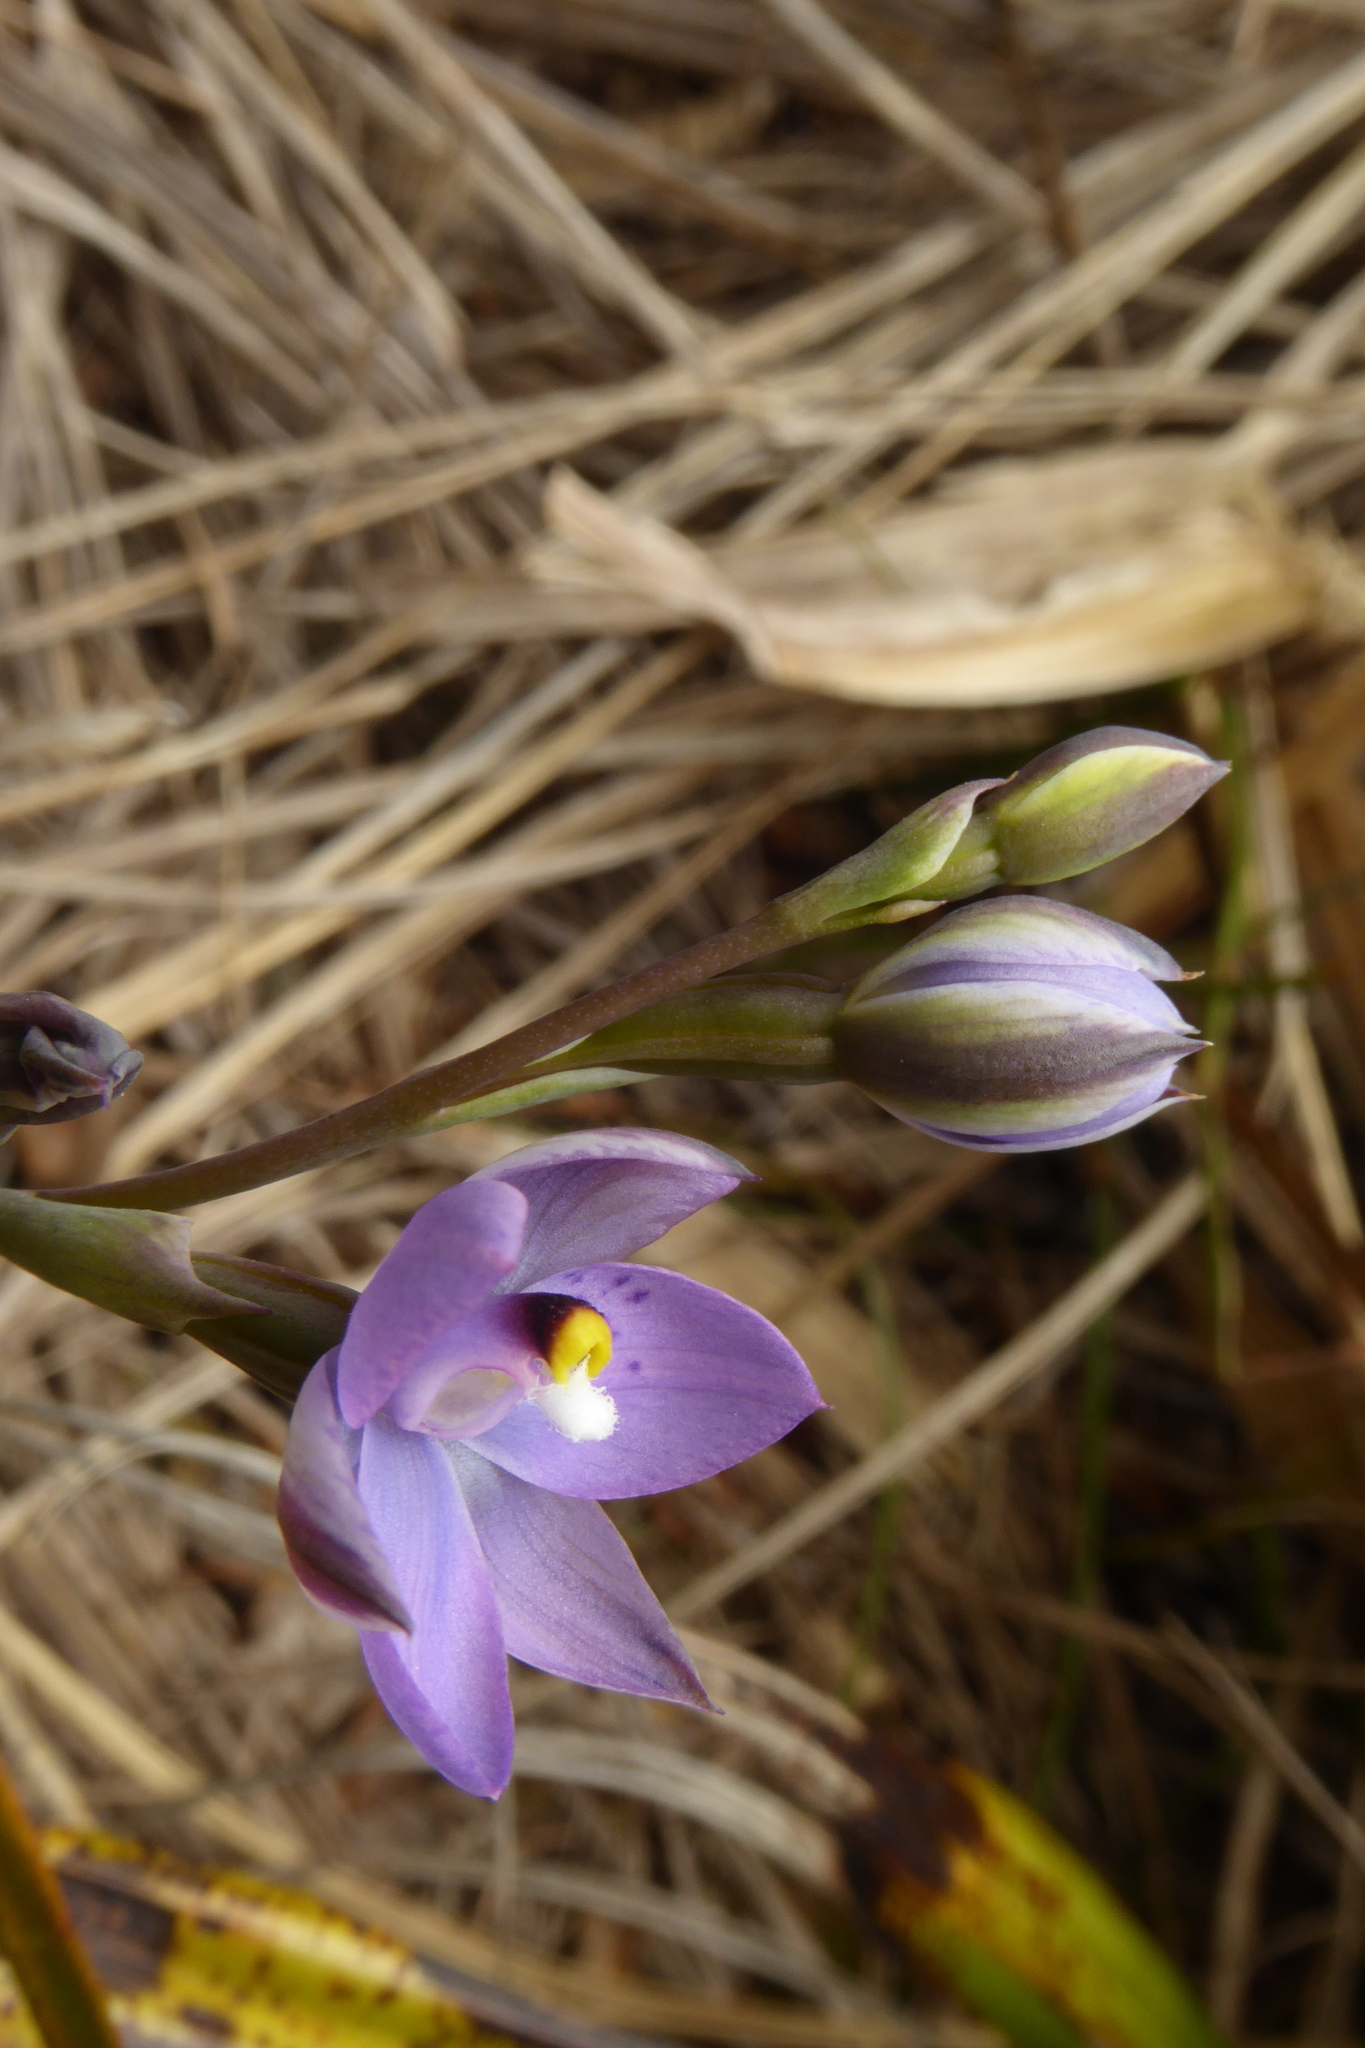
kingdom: Plantae
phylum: Tracheophyta
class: Liliopsida
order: Asparagales
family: Orchidaceae
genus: Thelymitra
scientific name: Thelymitra nervosa
